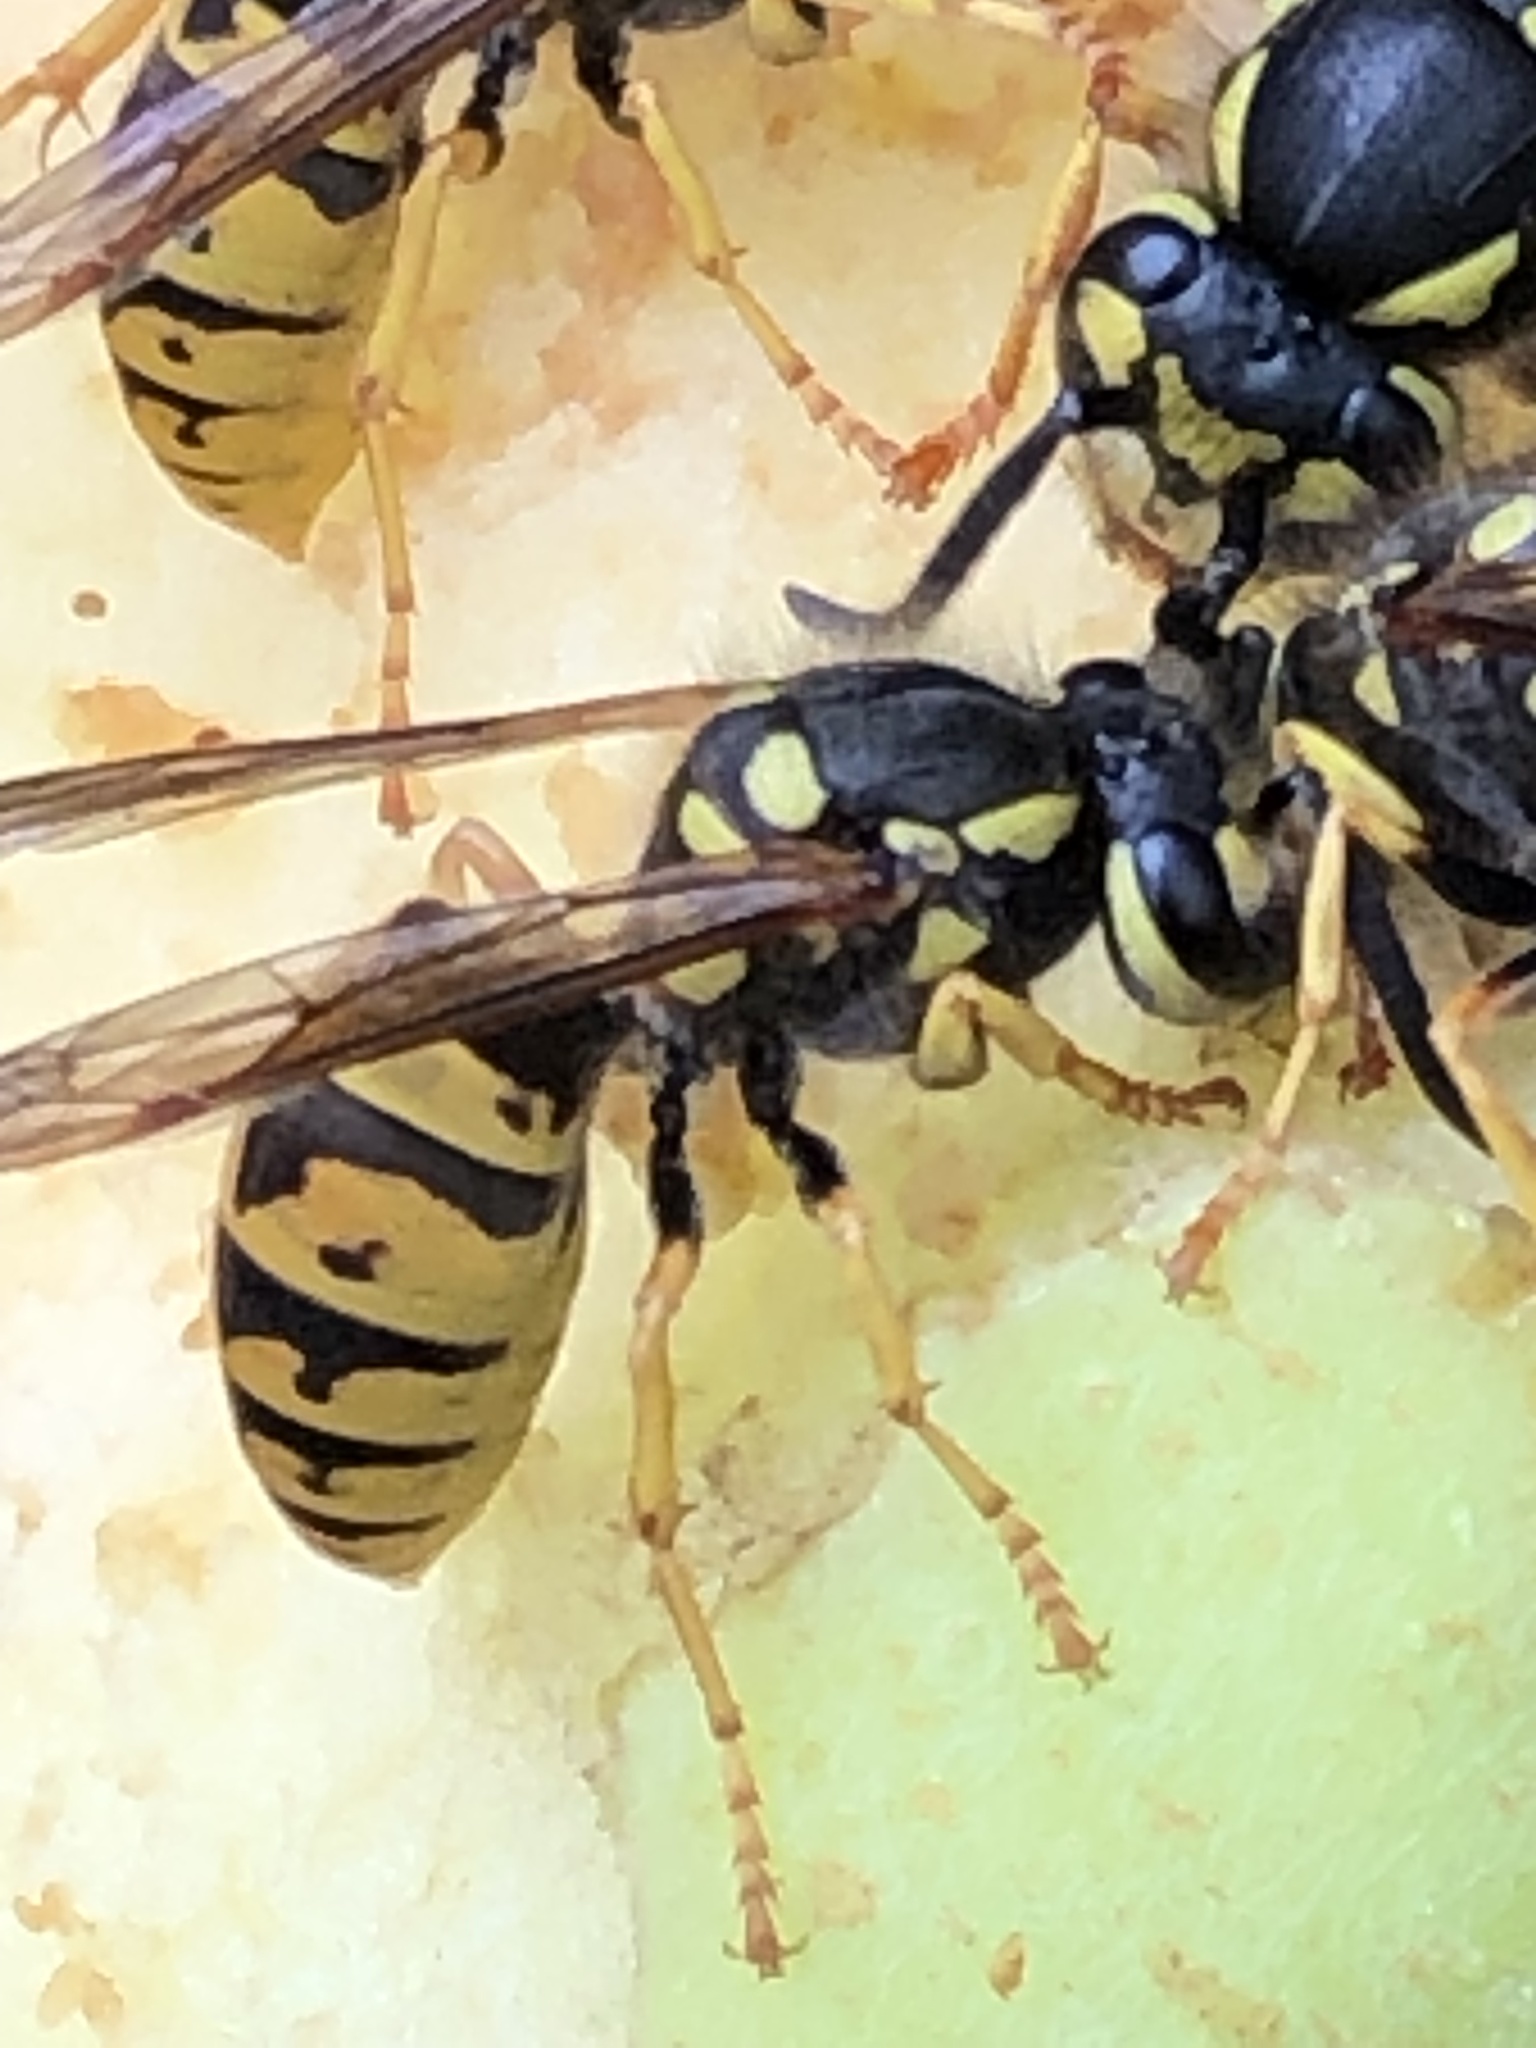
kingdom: Animalia
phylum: Arthropoda
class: Insecta
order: Hymenoptera
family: Vespidae
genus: Vespula
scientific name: Vespula germanica
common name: German wasp
